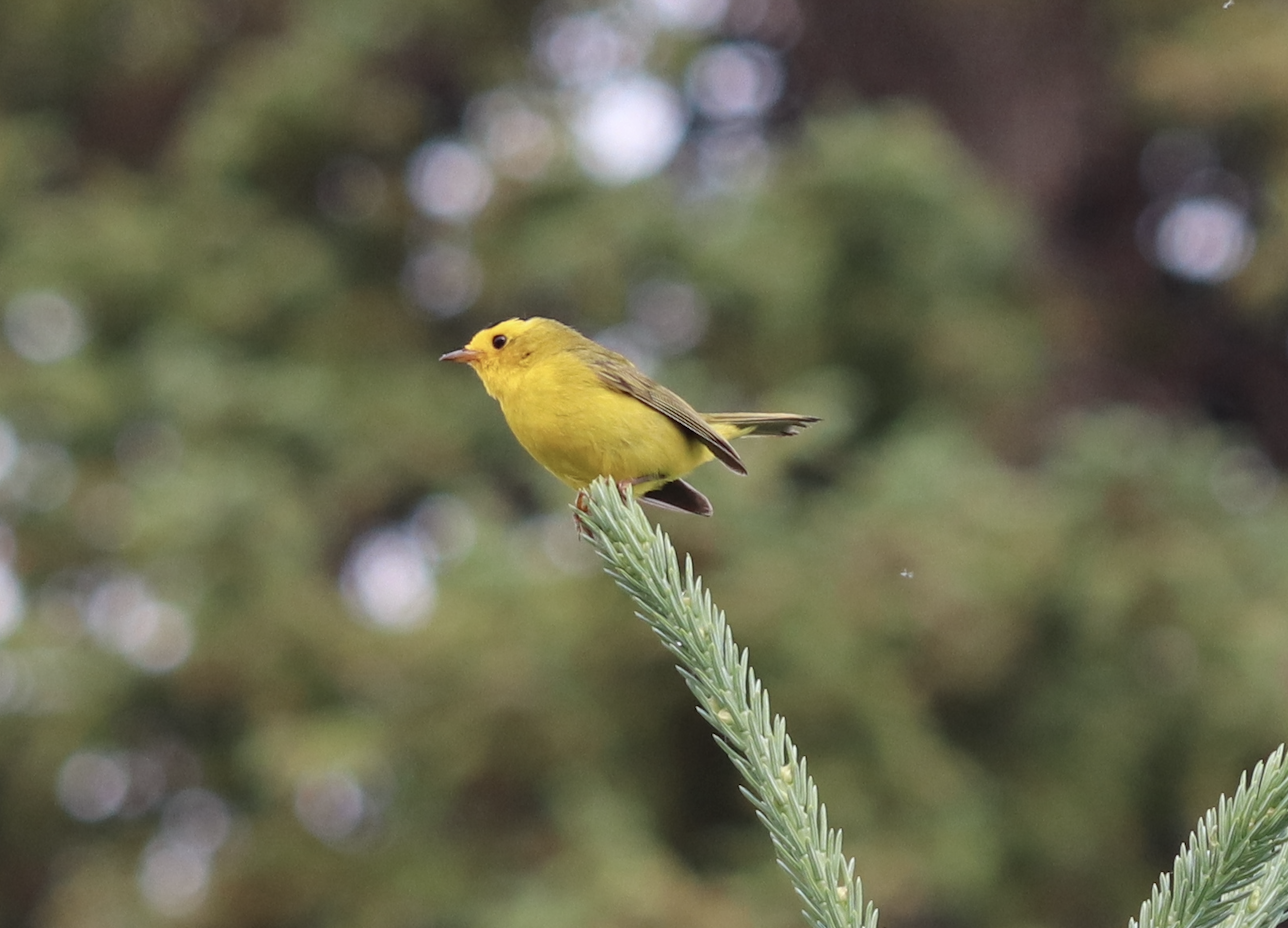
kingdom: Animalia
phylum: Chordata
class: Aves
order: Passeriformes
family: Parulidae
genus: Cardellina
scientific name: Cardellina pusilla
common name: Wilson's warbler
